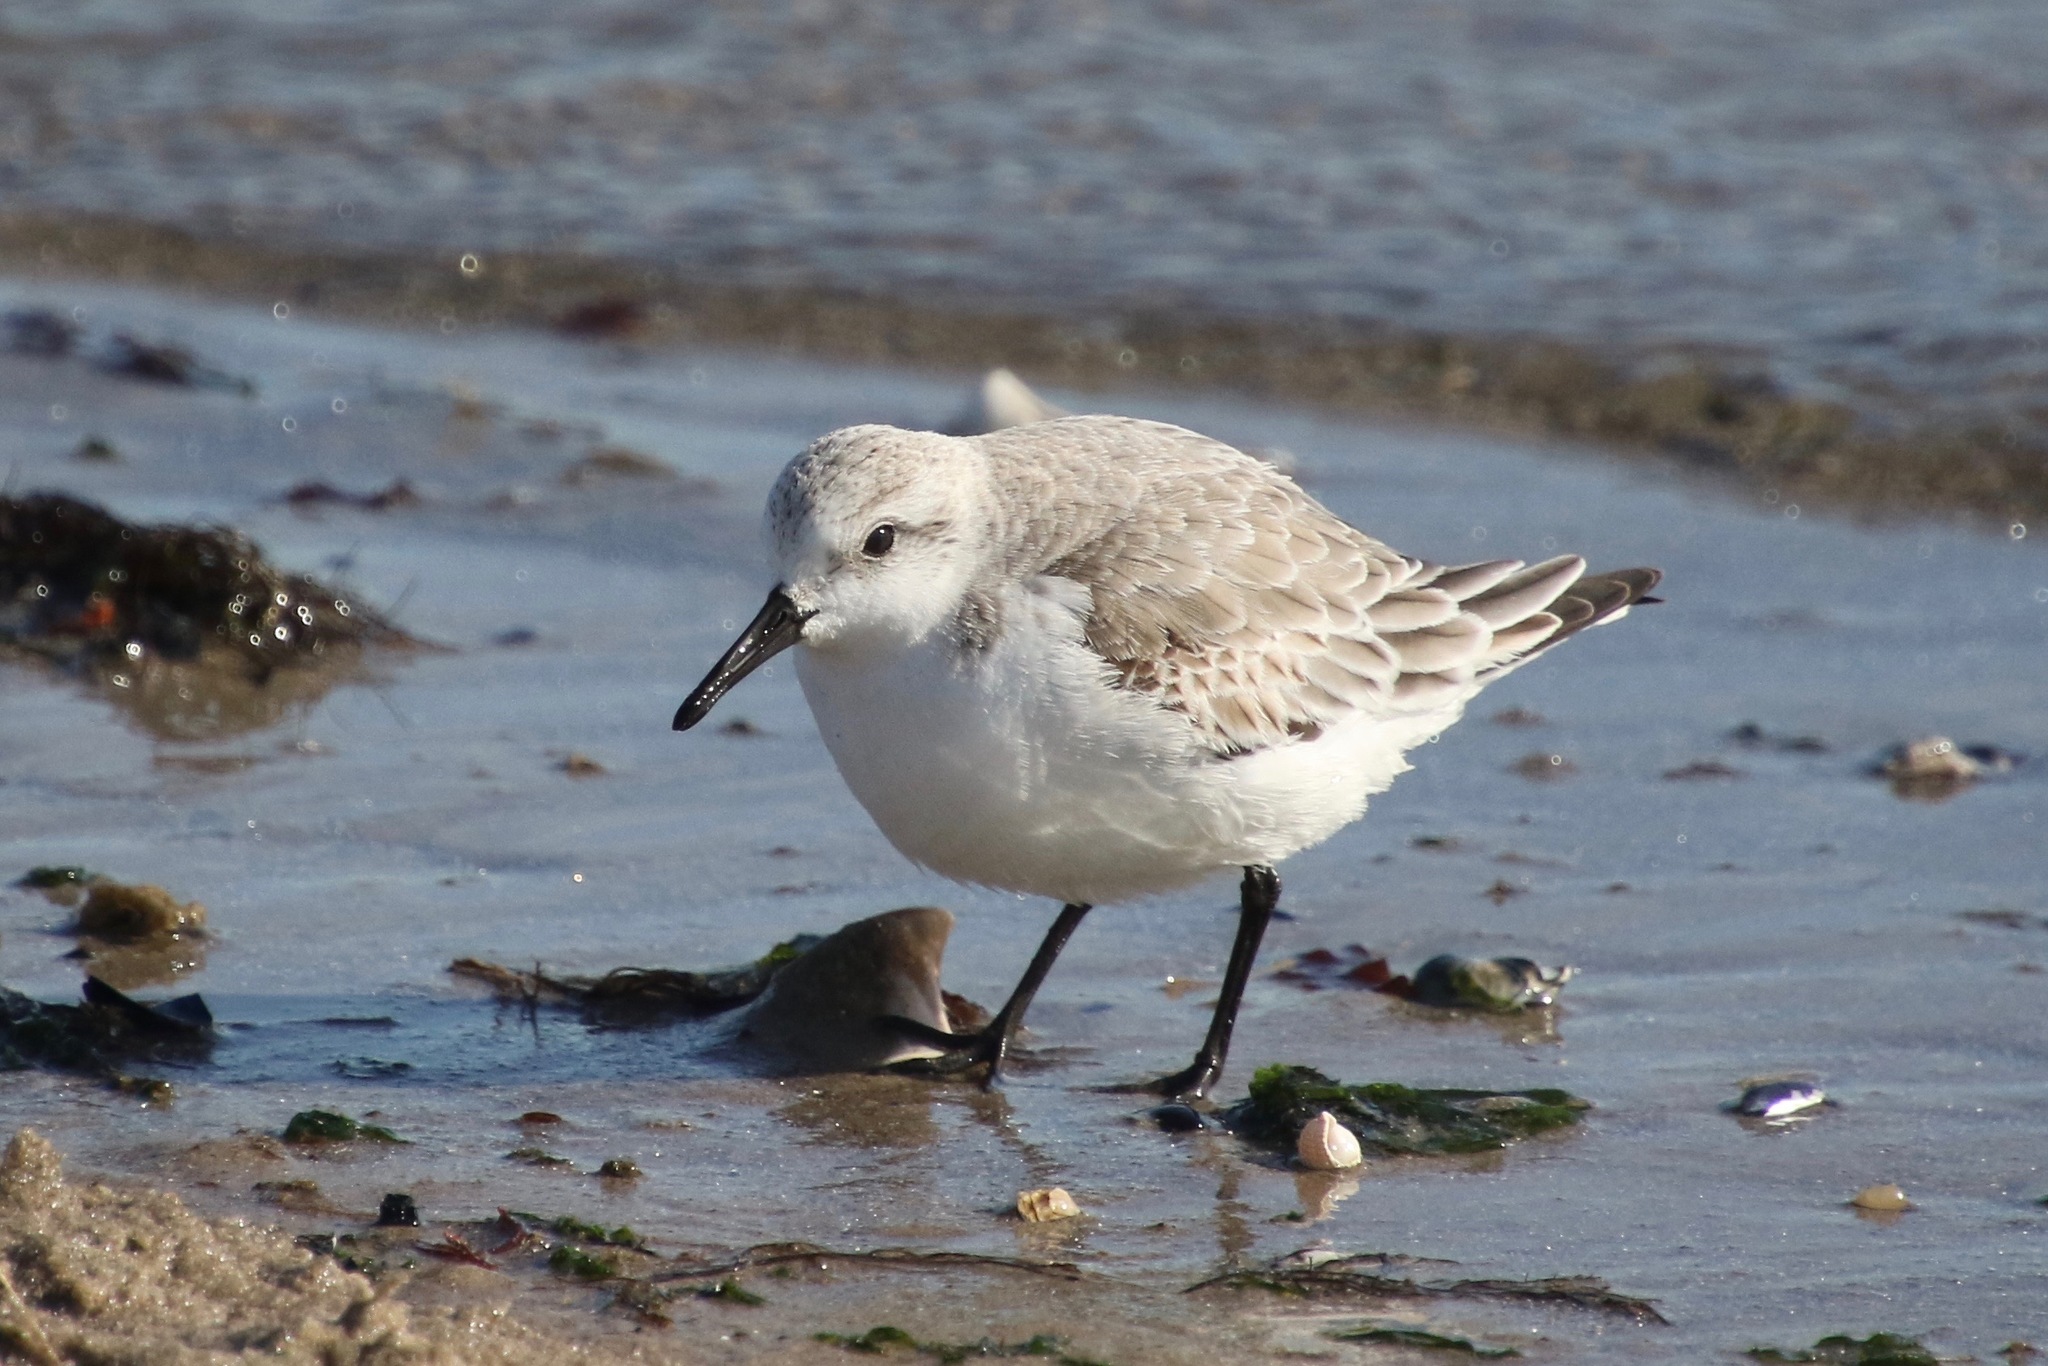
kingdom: Animalia
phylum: Chordata
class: Aves
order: Charadriiformes
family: Scolopacidae
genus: Calidris
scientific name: Calidris alba
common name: Sanderling
